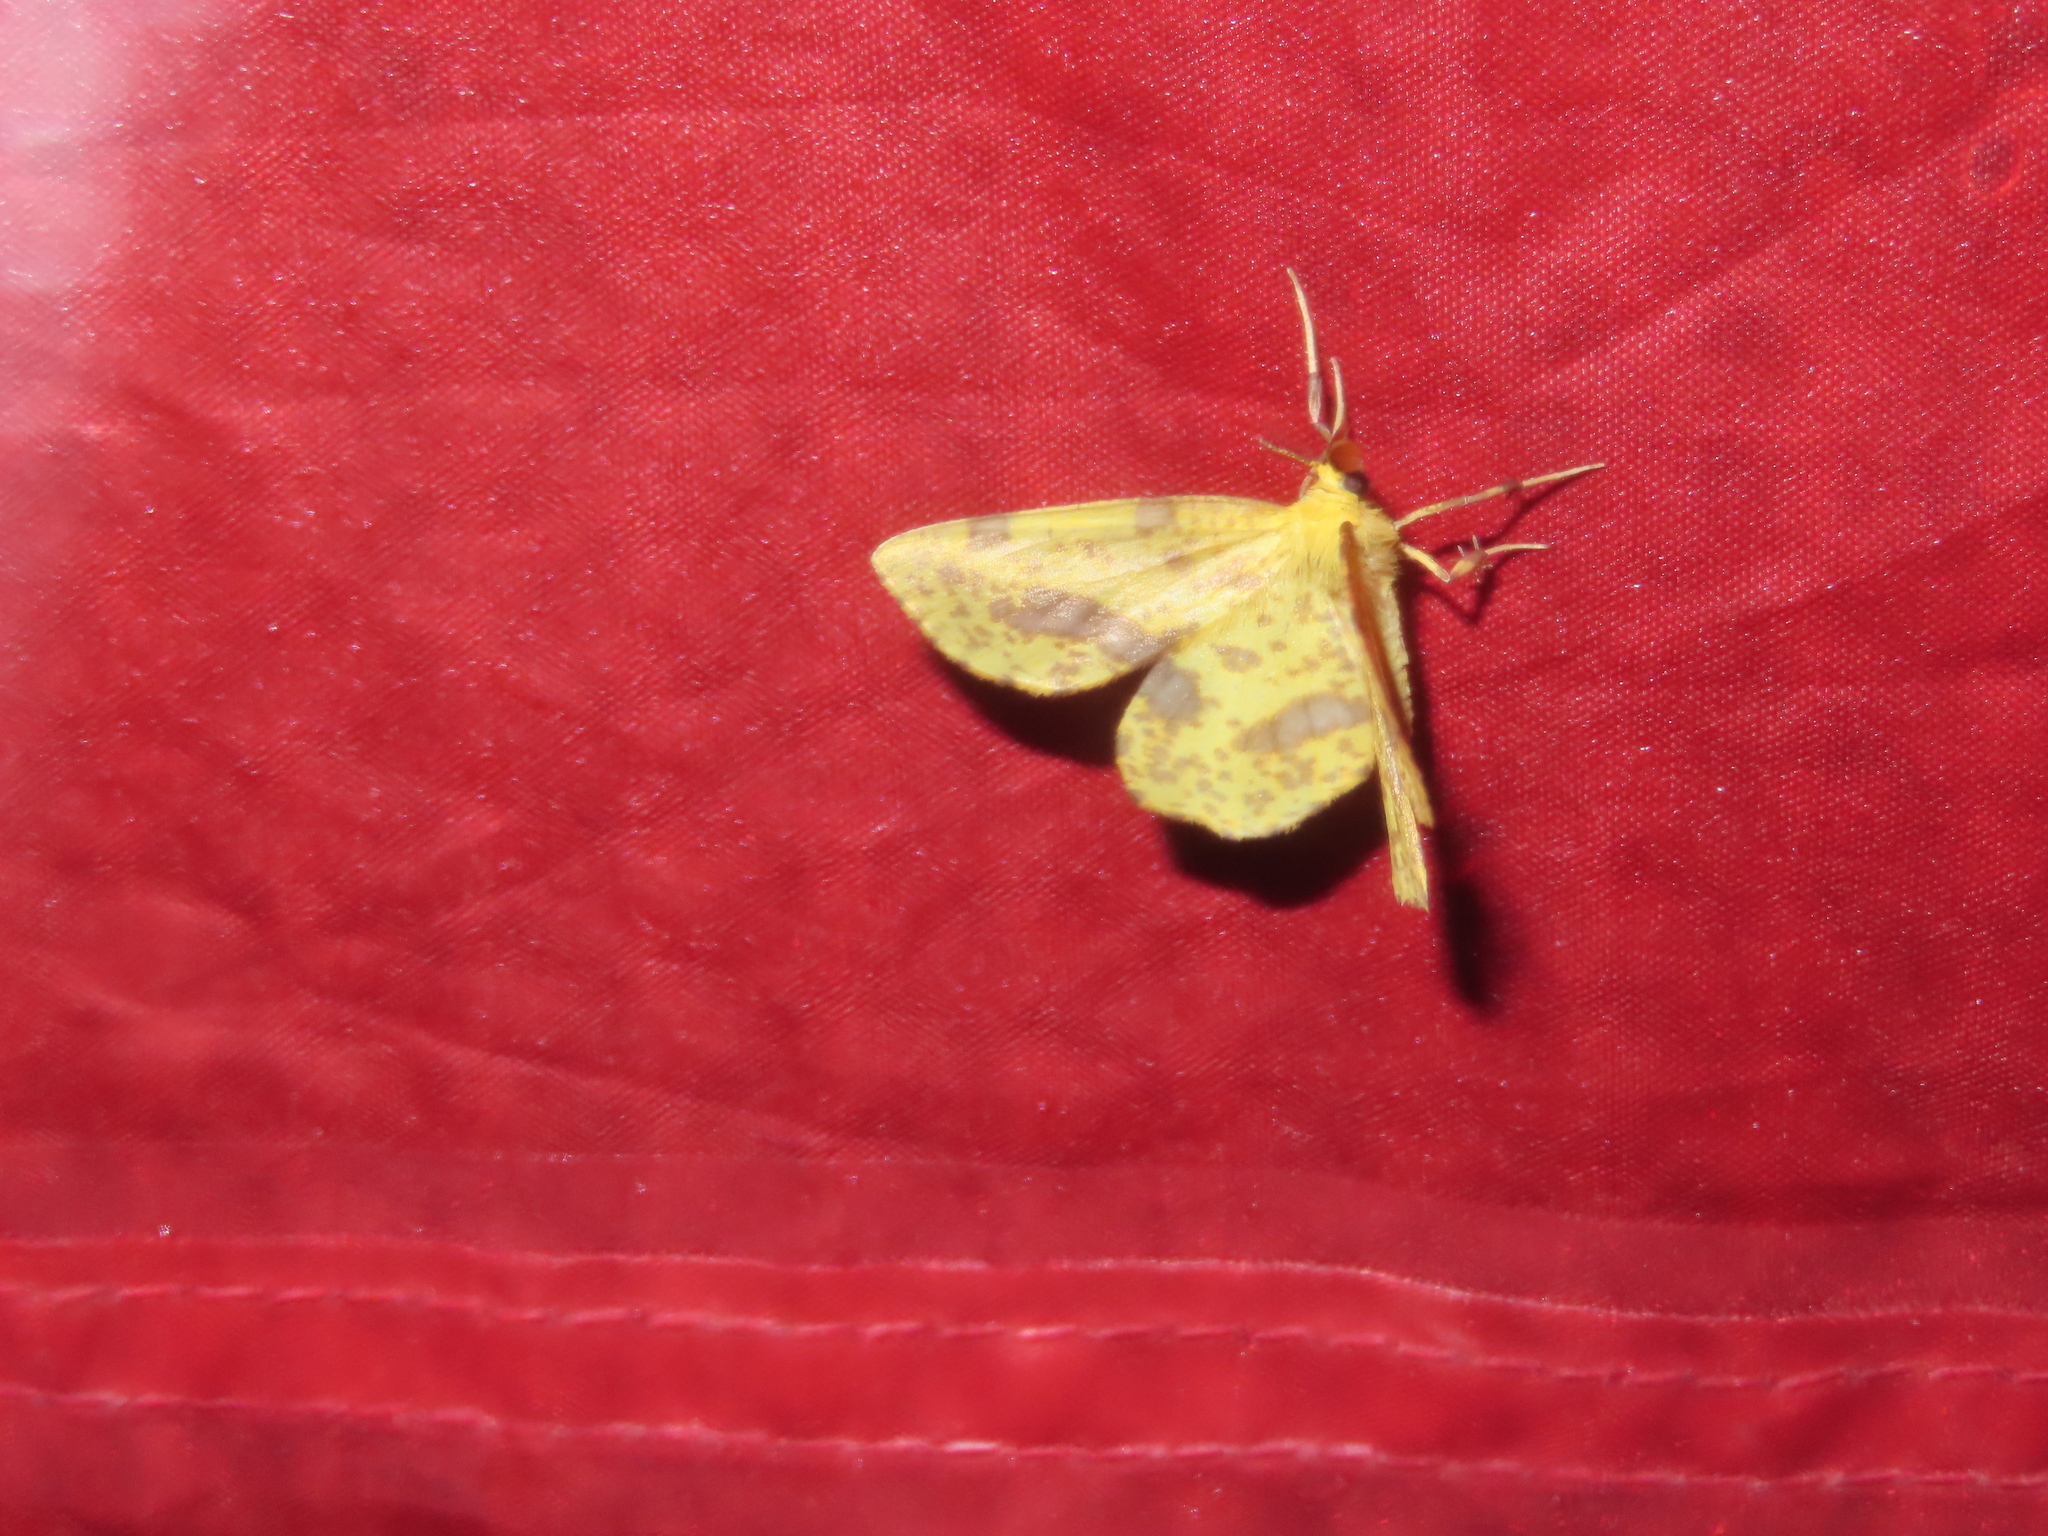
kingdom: Animalia
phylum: Arthropoda
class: Insecta
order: Lepidoptera
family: Geometridae
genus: Xanthotype
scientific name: Xanthotype
